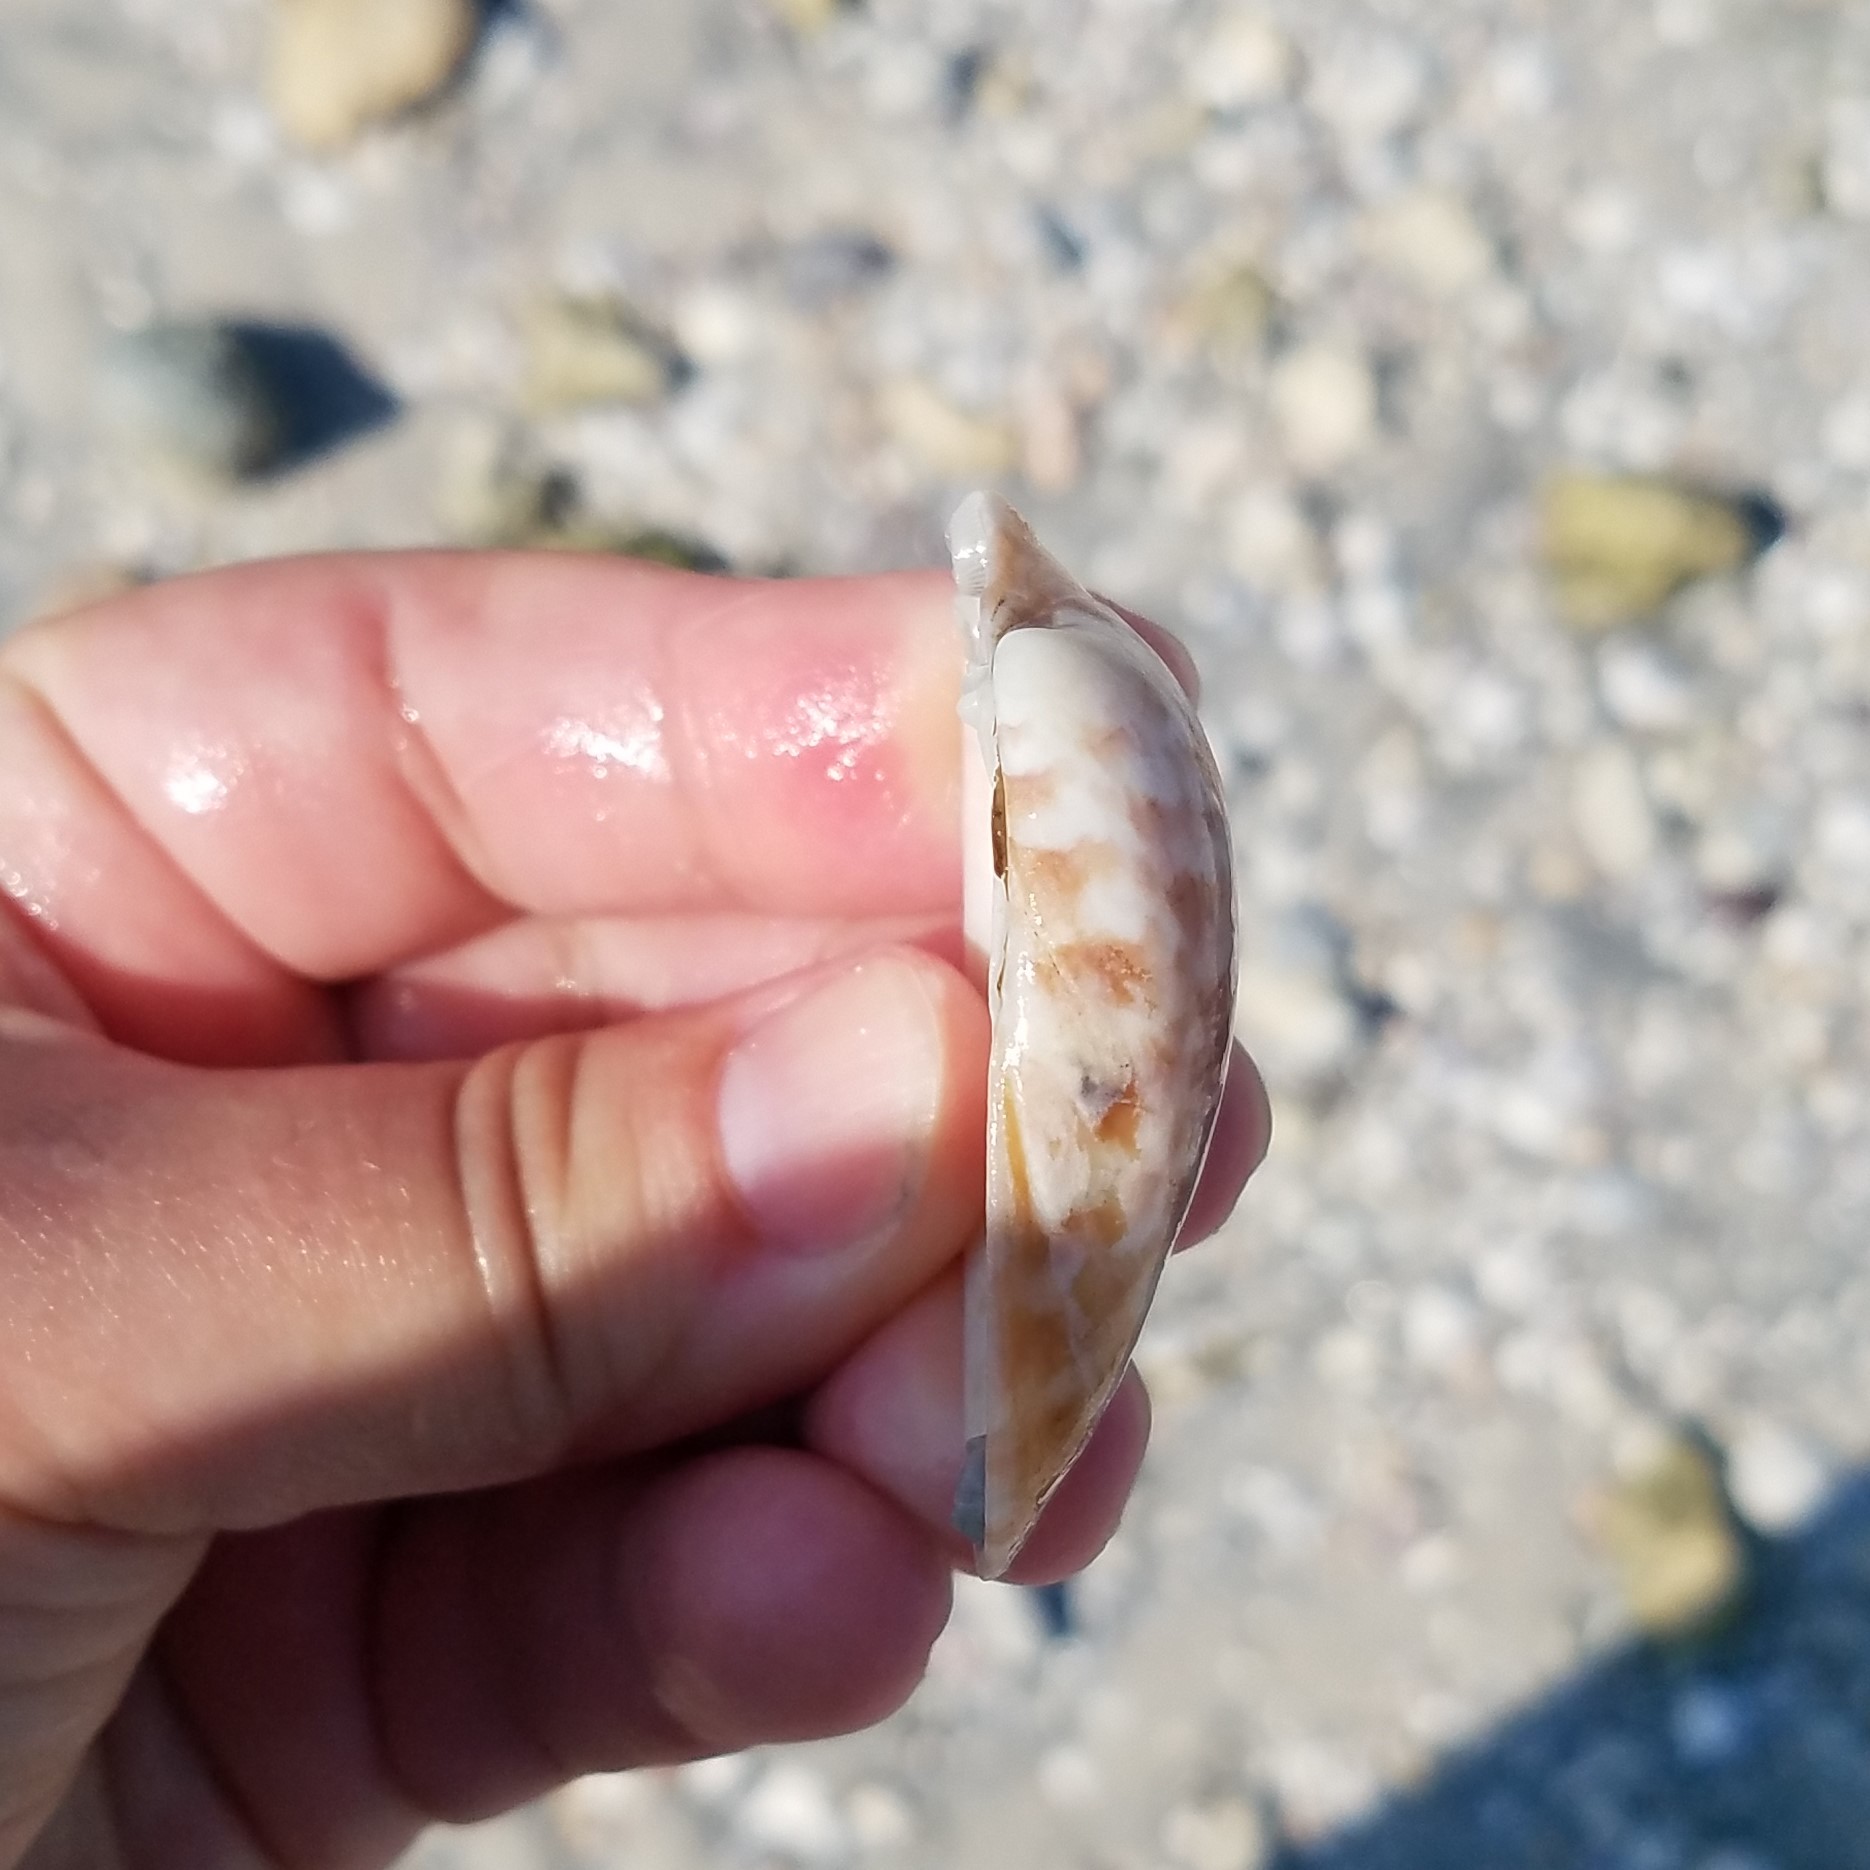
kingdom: Animalia
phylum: Mollusca
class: Bivalvia
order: Venerida
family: Veneridae
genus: Megapitaria
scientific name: Megapitaria maculata
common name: Calico clam
